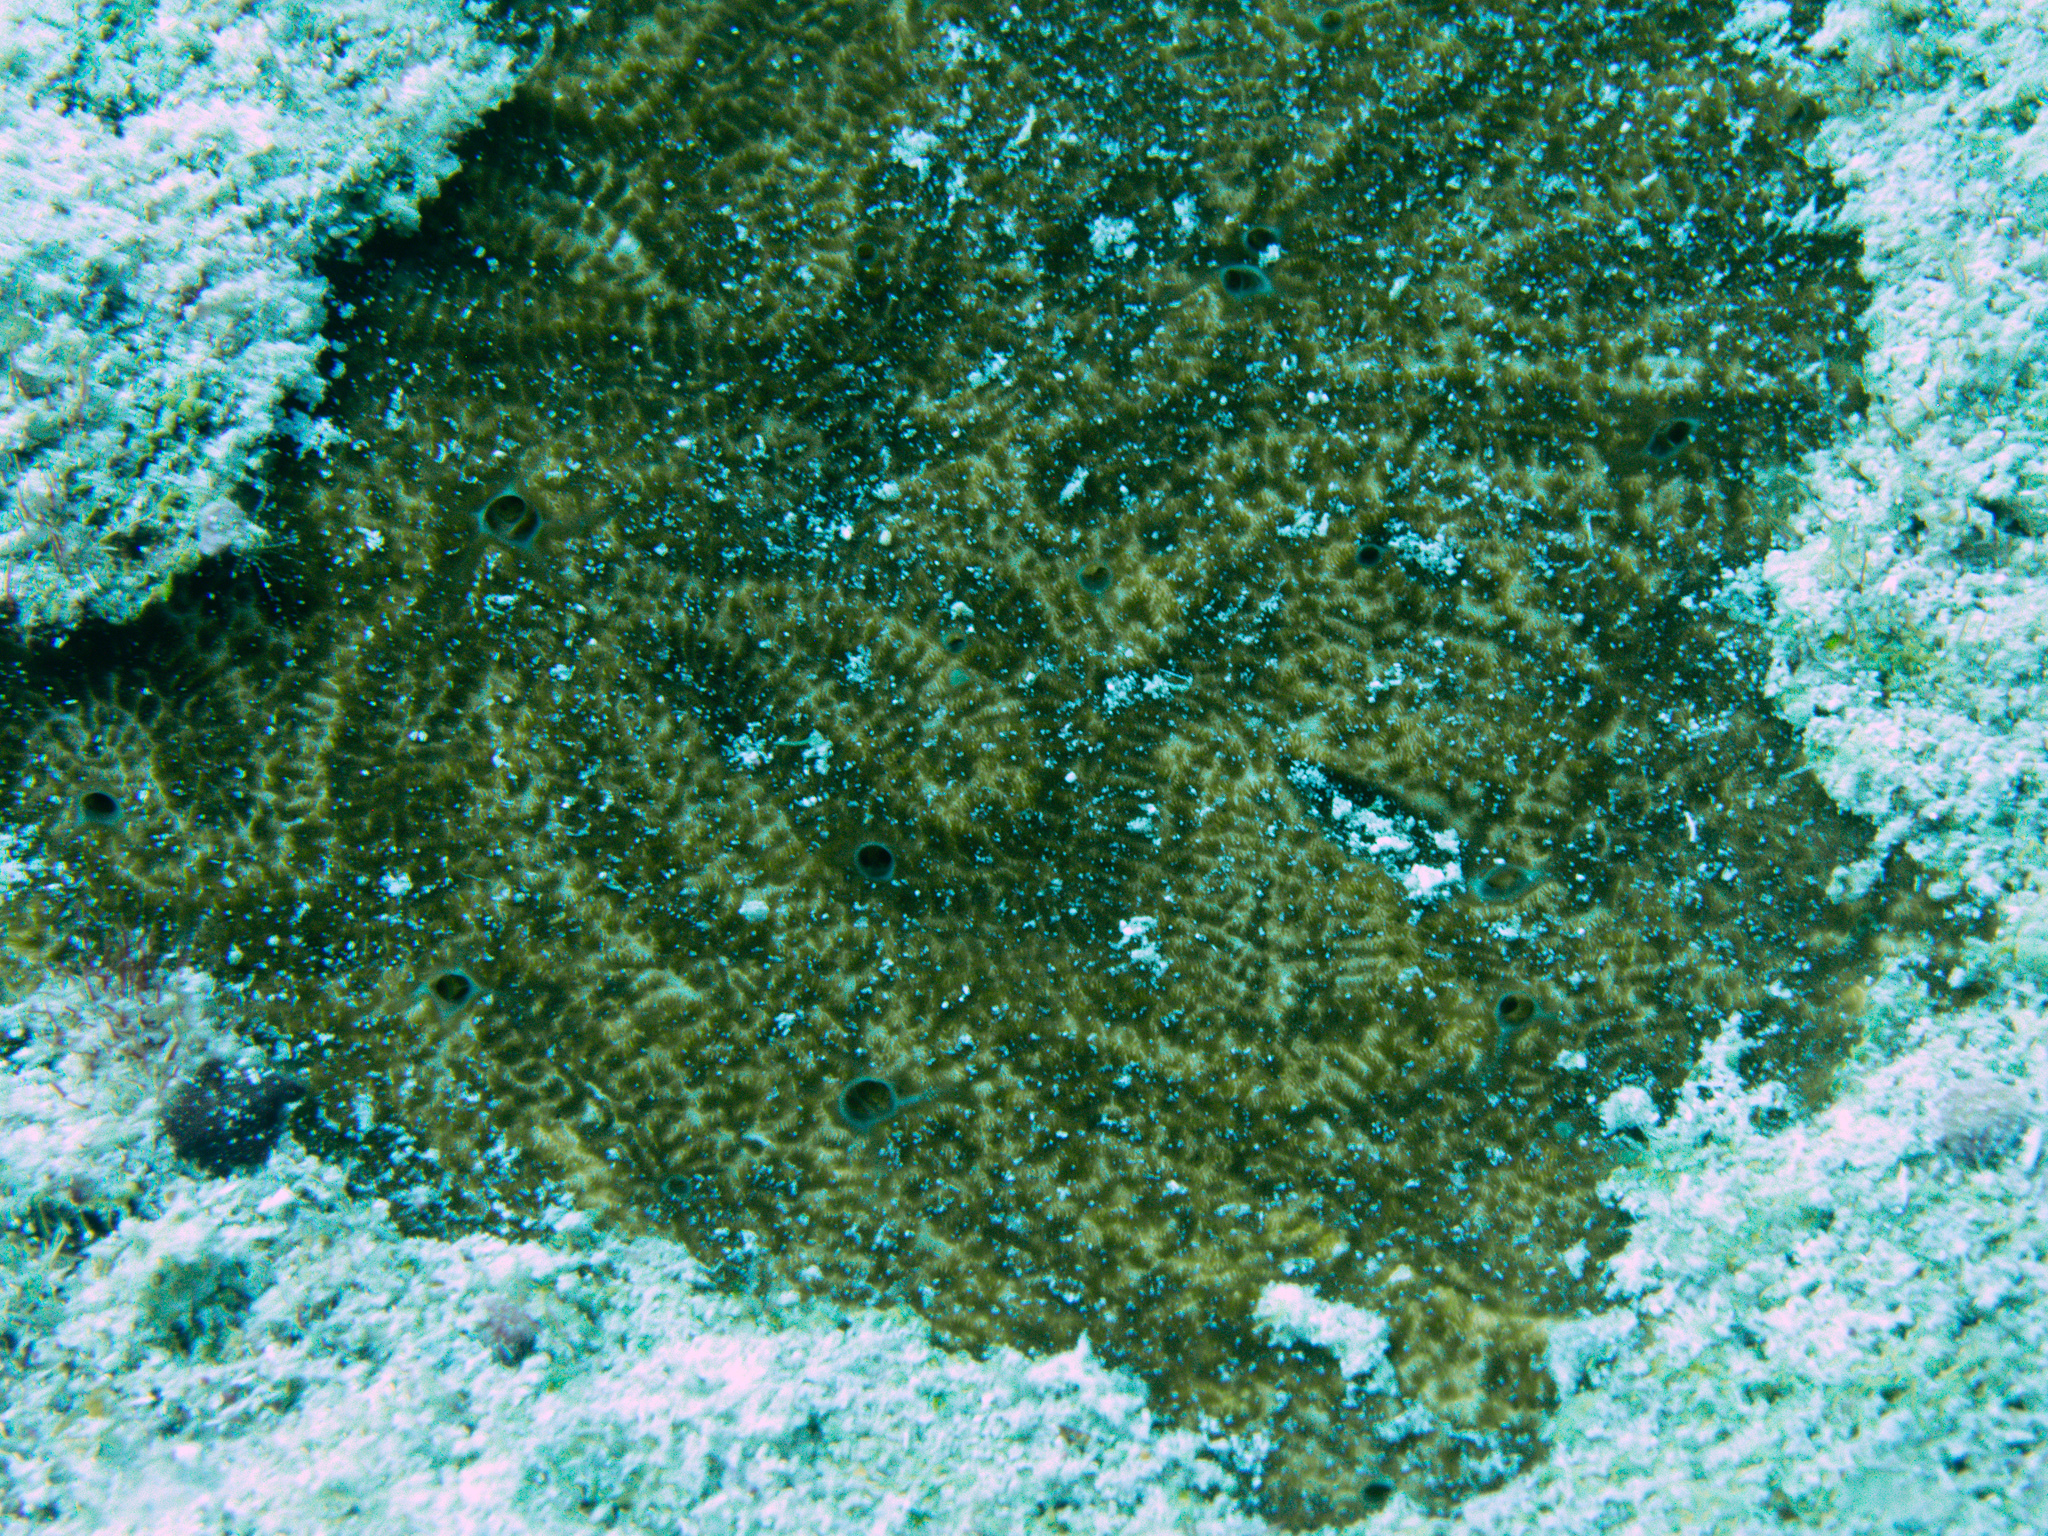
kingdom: Animalia
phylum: Porifera
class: Demospongiae
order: Clionaida
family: Clionaidae
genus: Cliona
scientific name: Cliona caribbaea
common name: Green boring sponge
